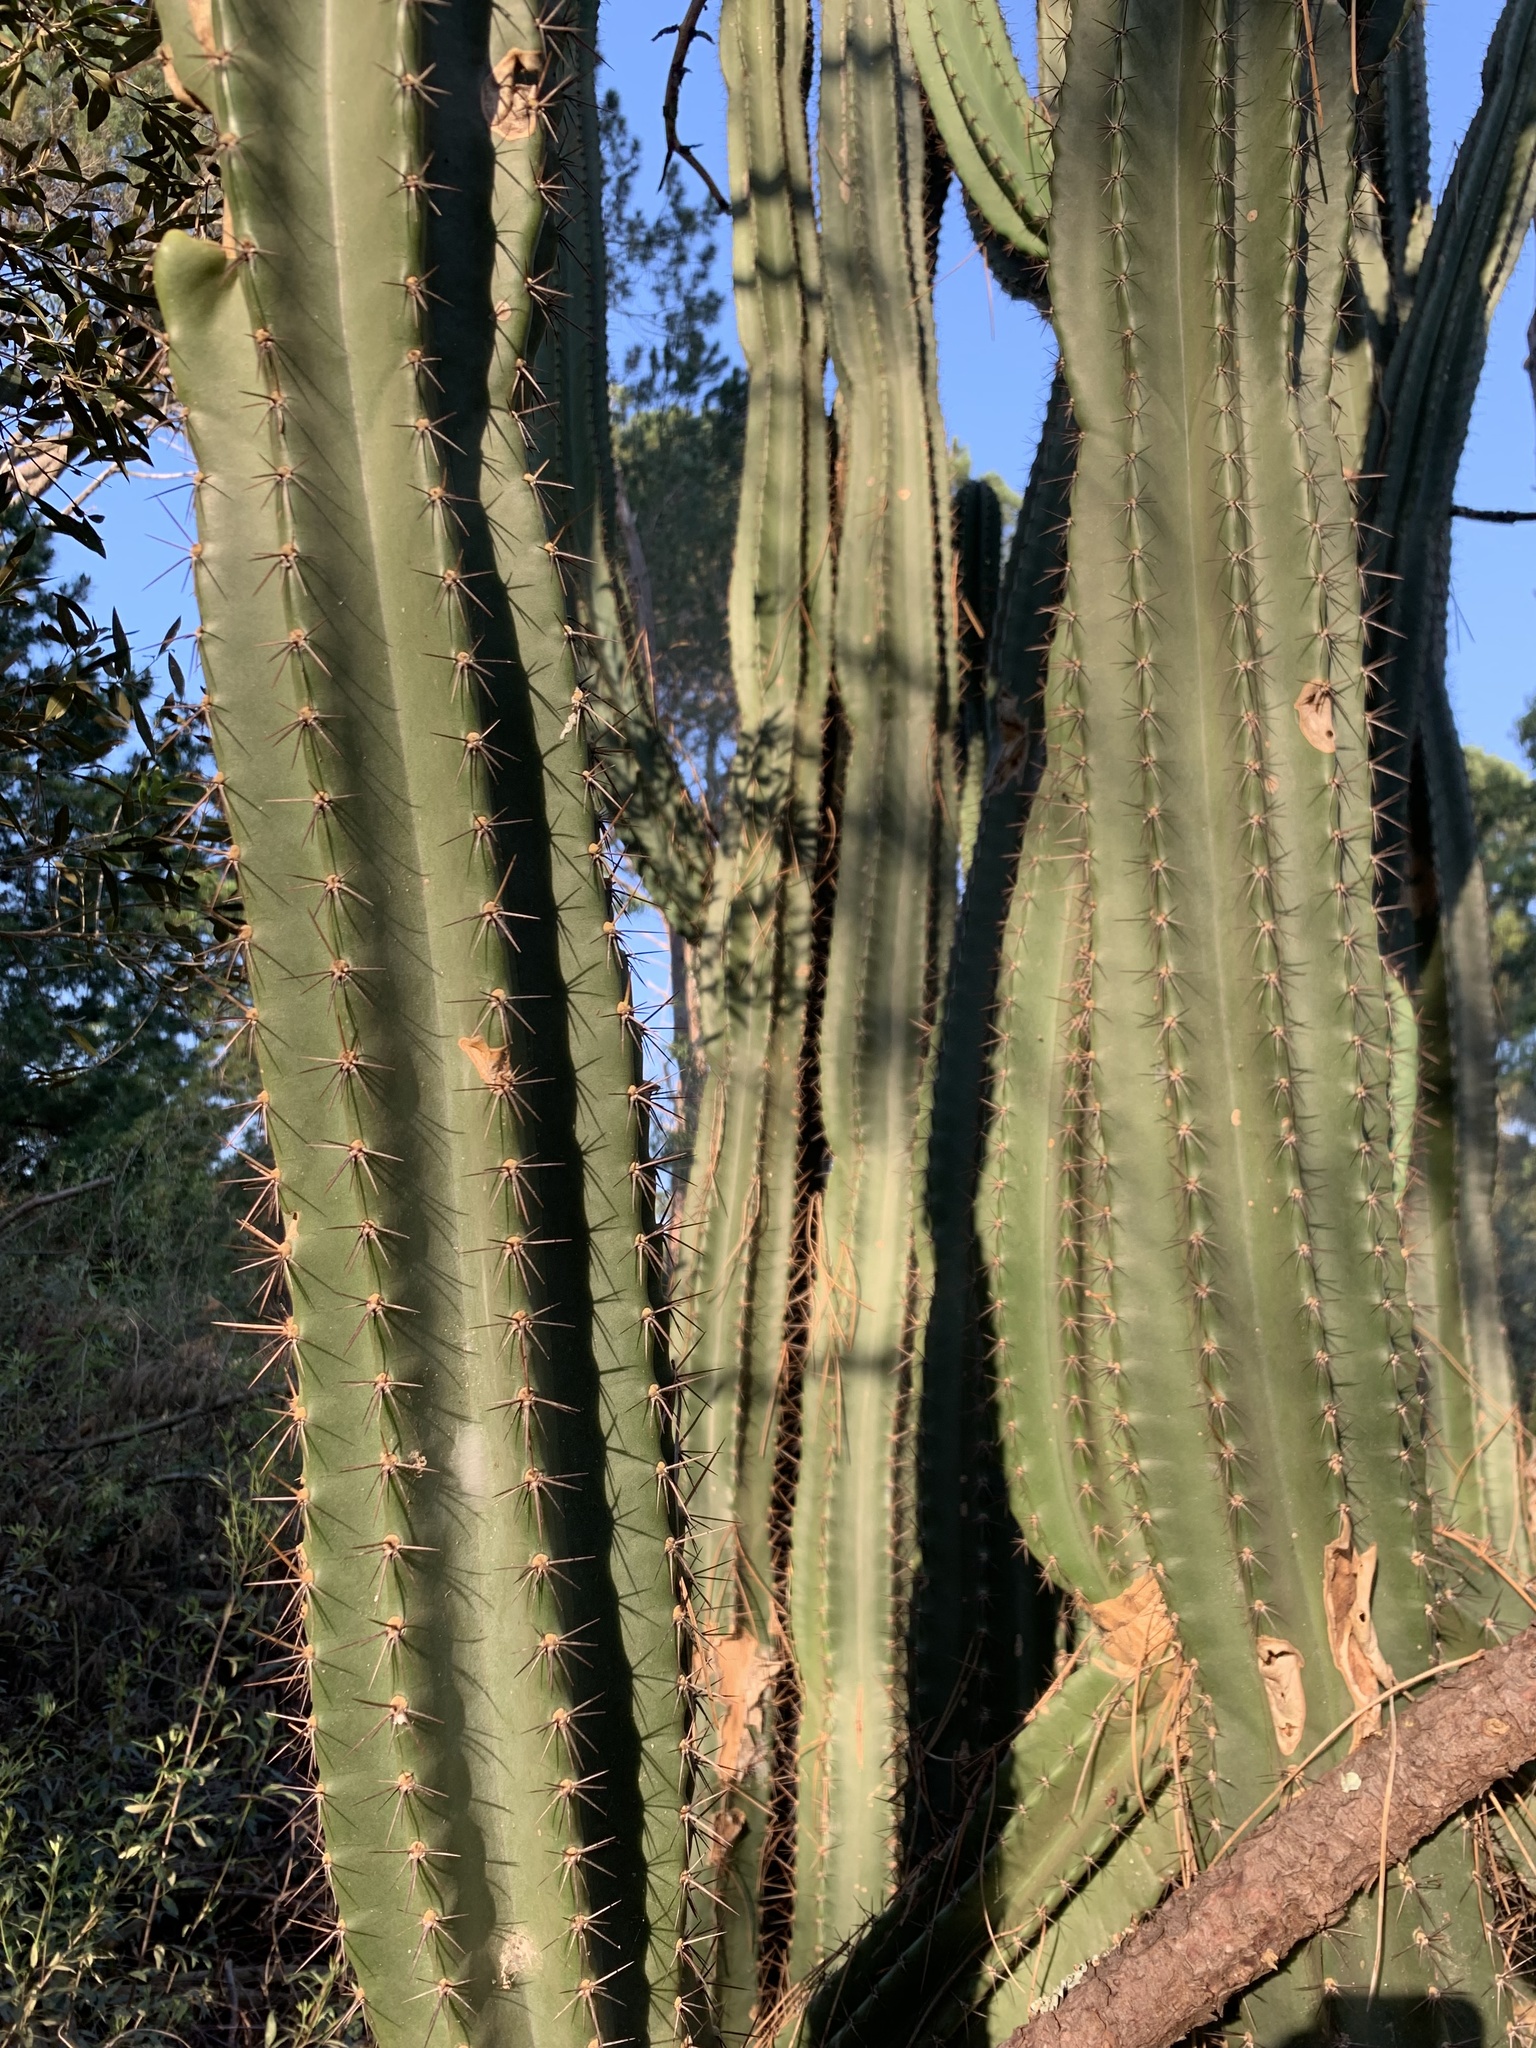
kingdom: Plantae
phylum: Tracheophyta
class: Magnoliopsida
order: Caryophyllales
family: Cactaceae
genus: Cereus
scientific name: Cereus jamacaru
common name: Queen-of-the-night
